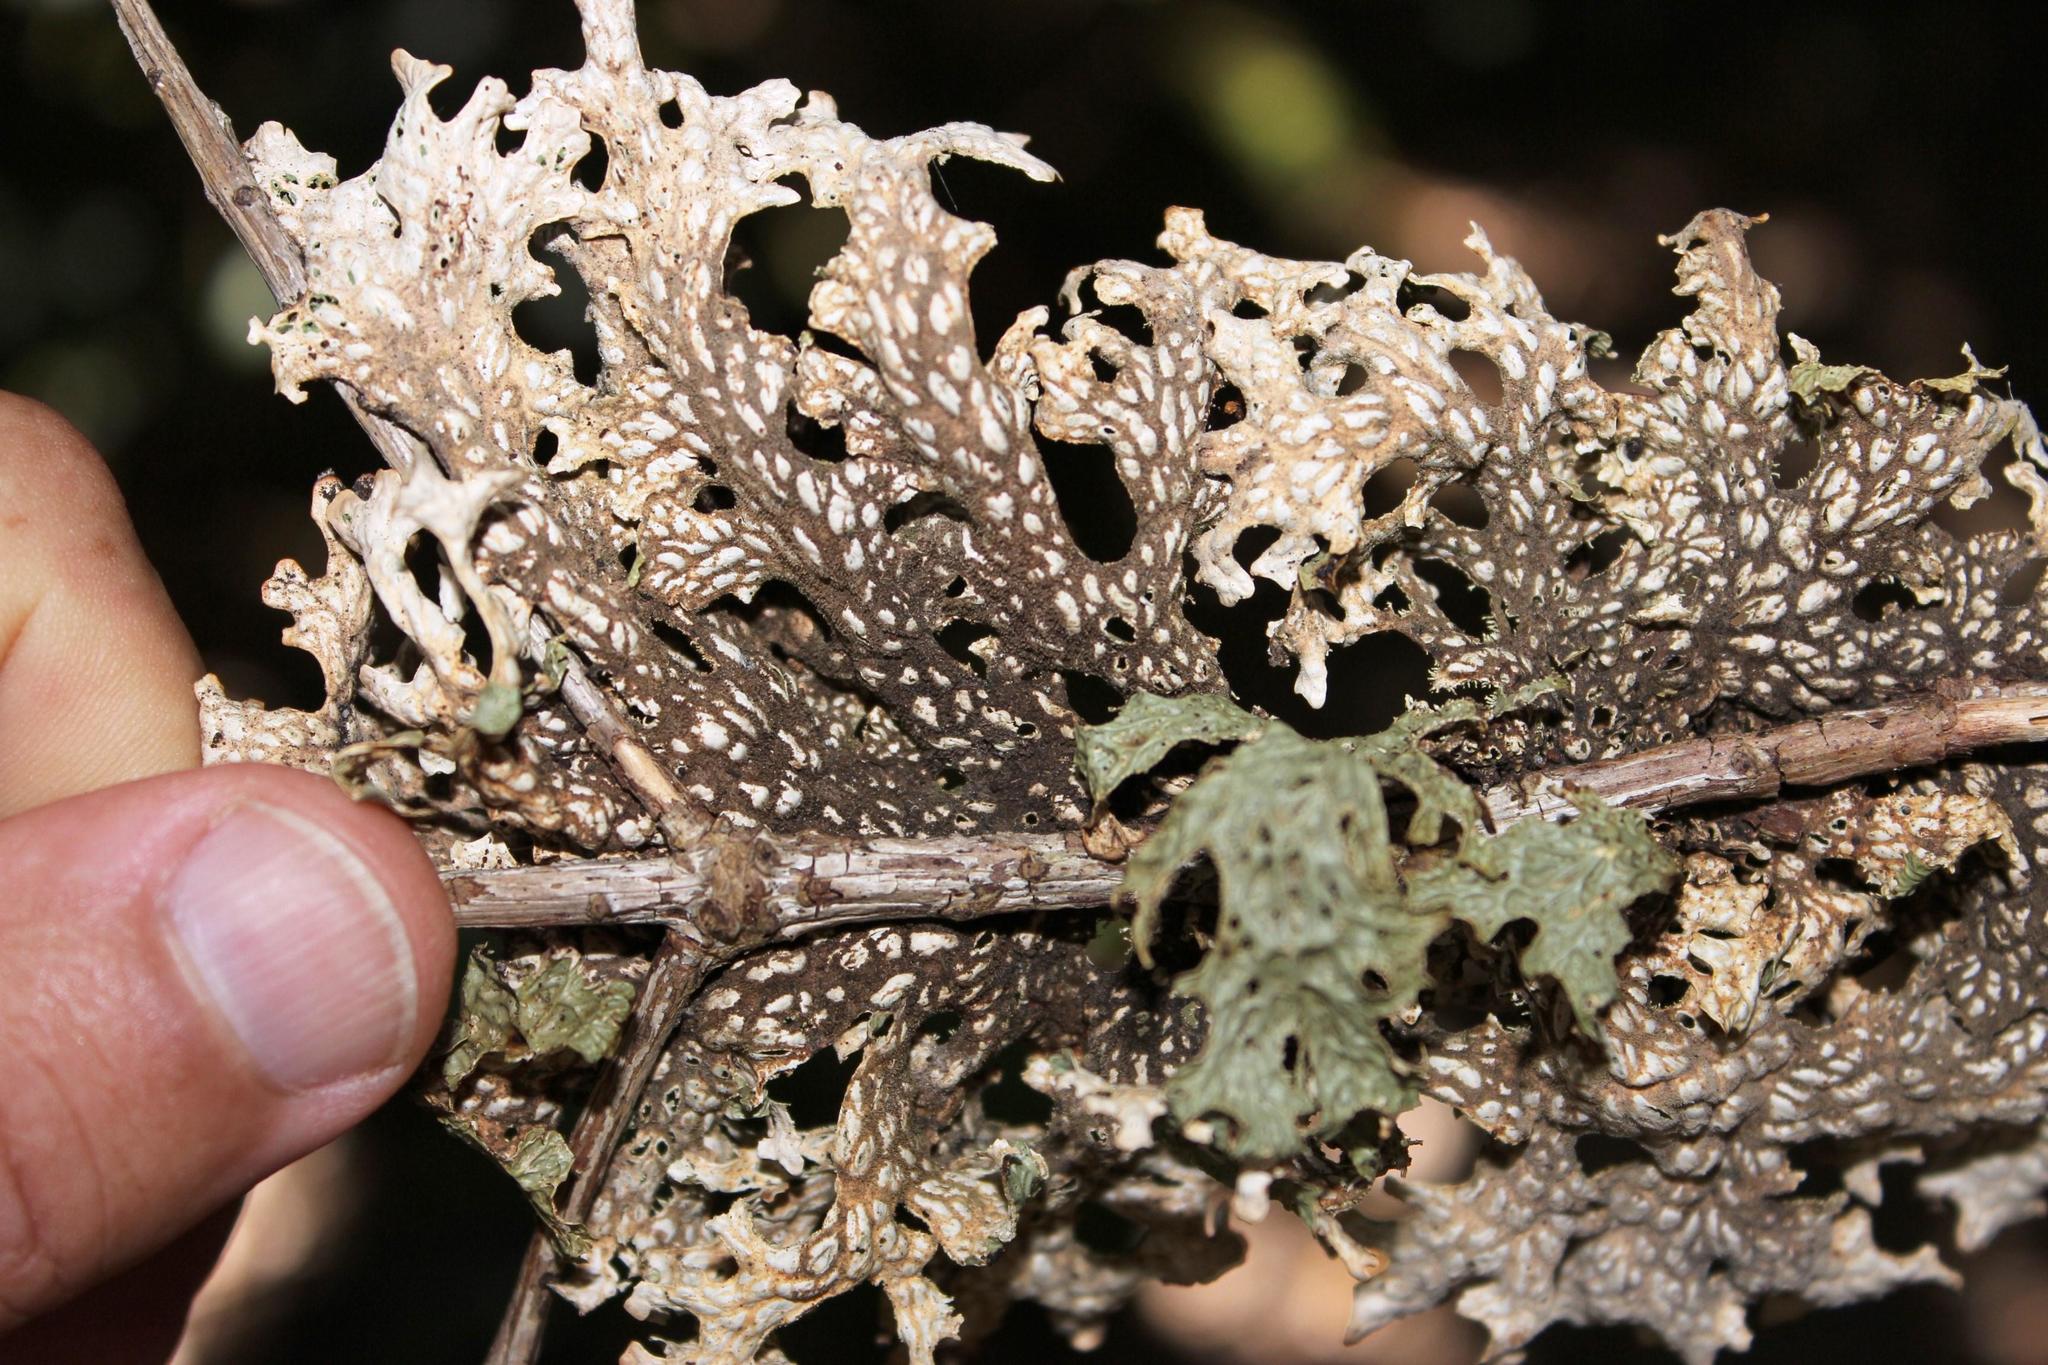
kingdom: Fungi
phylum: Ascomycota
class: Lecanoromycetes
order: Peltigerales
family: Lobariaceae
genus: Lobaria
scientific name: Lobaria pulmonaria
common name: Lungwort
